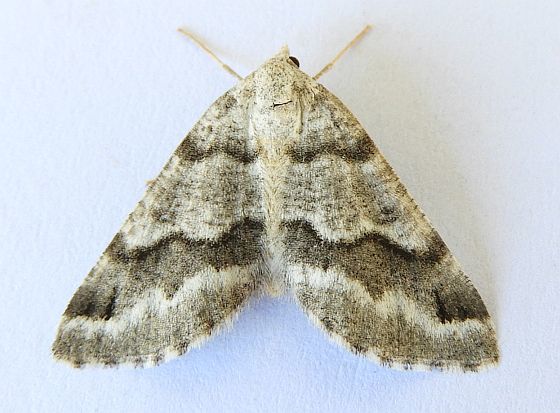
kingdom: Animalia
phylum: Arthropoda
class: Insecta
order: Lepidoptera
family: Geometridae
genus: Macaria
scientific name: Macaria pallipennata
